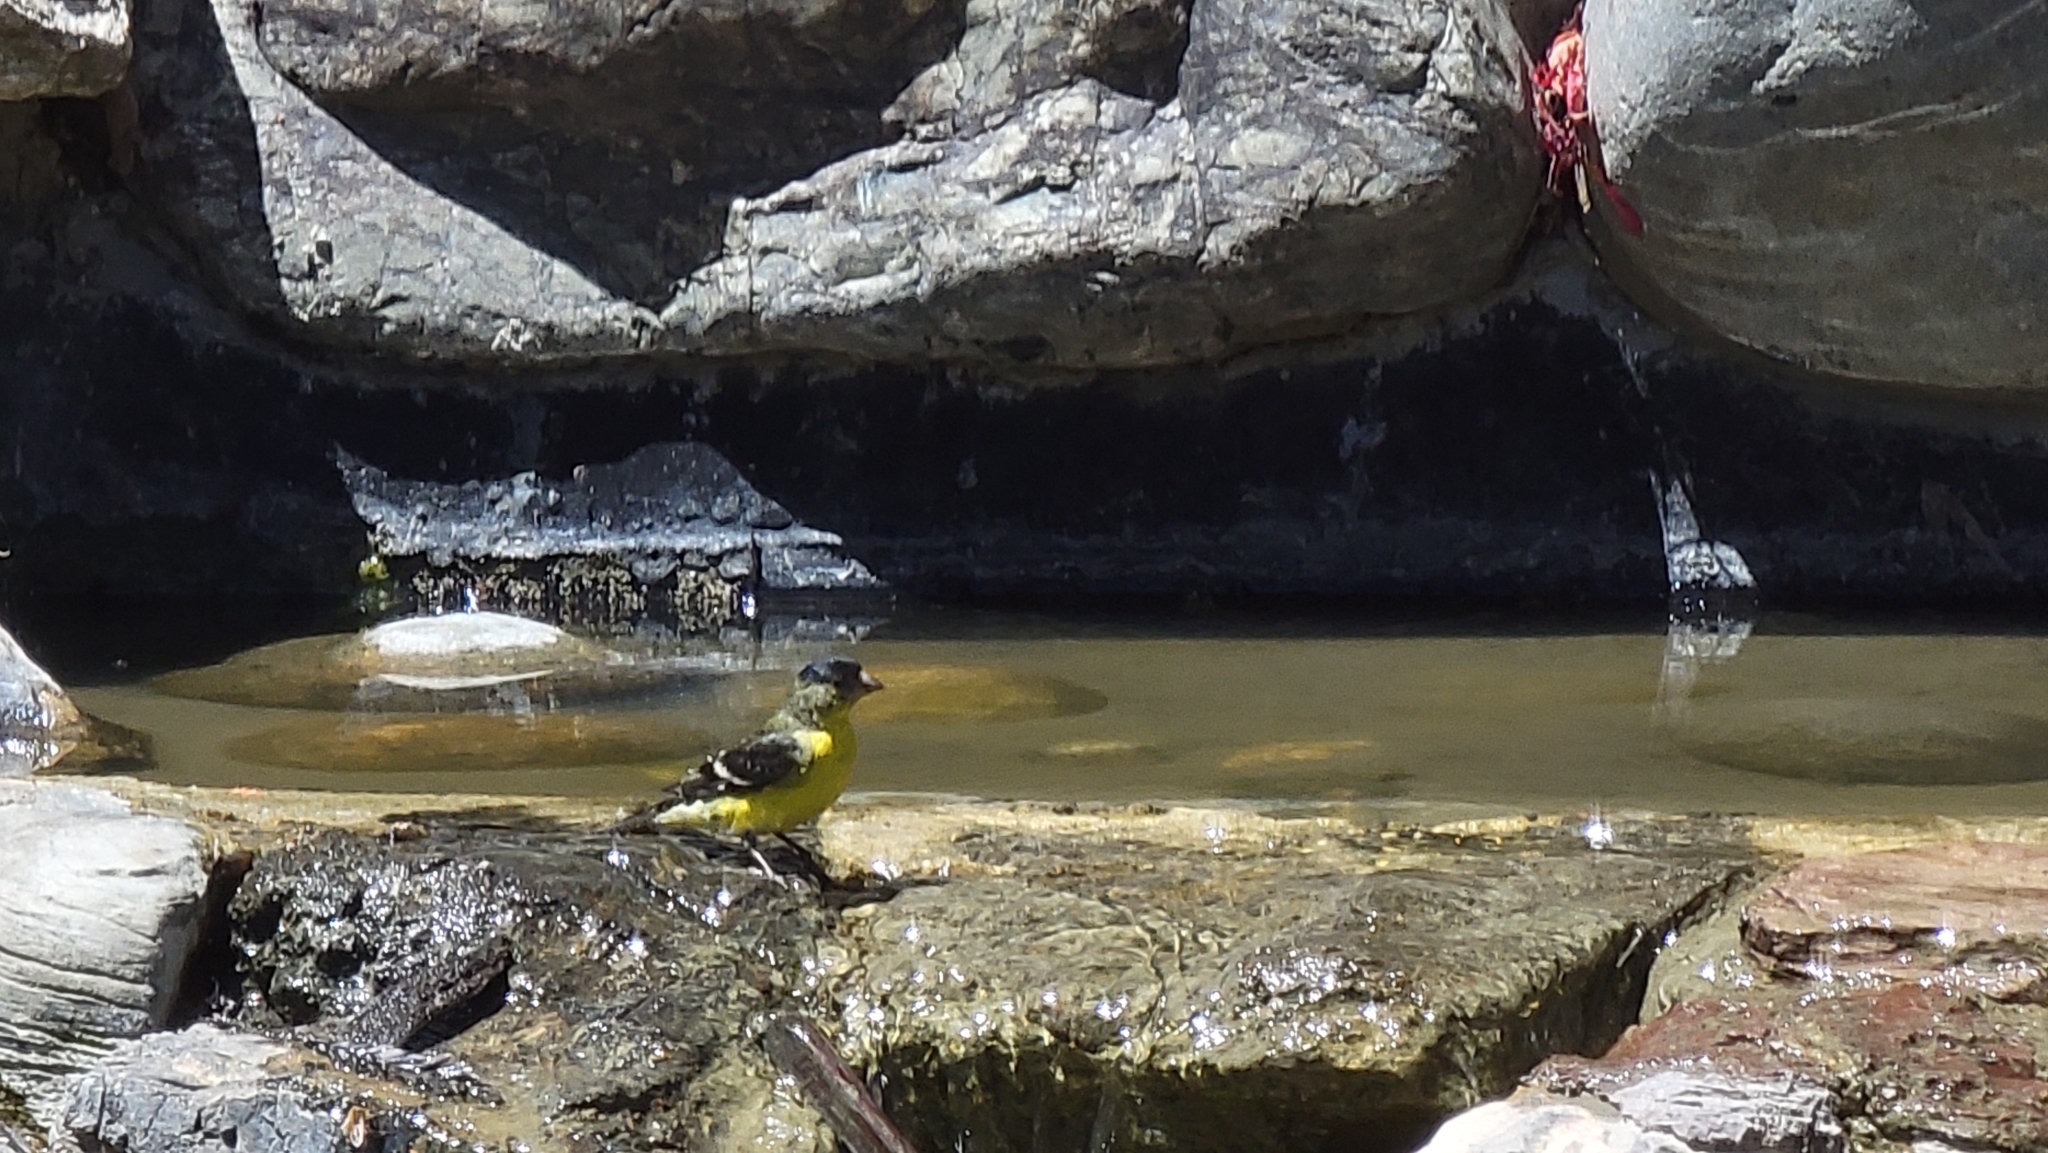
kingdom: Animalia
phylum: Chordata
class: Aves
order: Passeriformes
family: Fringillidae
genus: Spinus
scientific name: Spinus psaltria
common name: Lesser goldfinch
